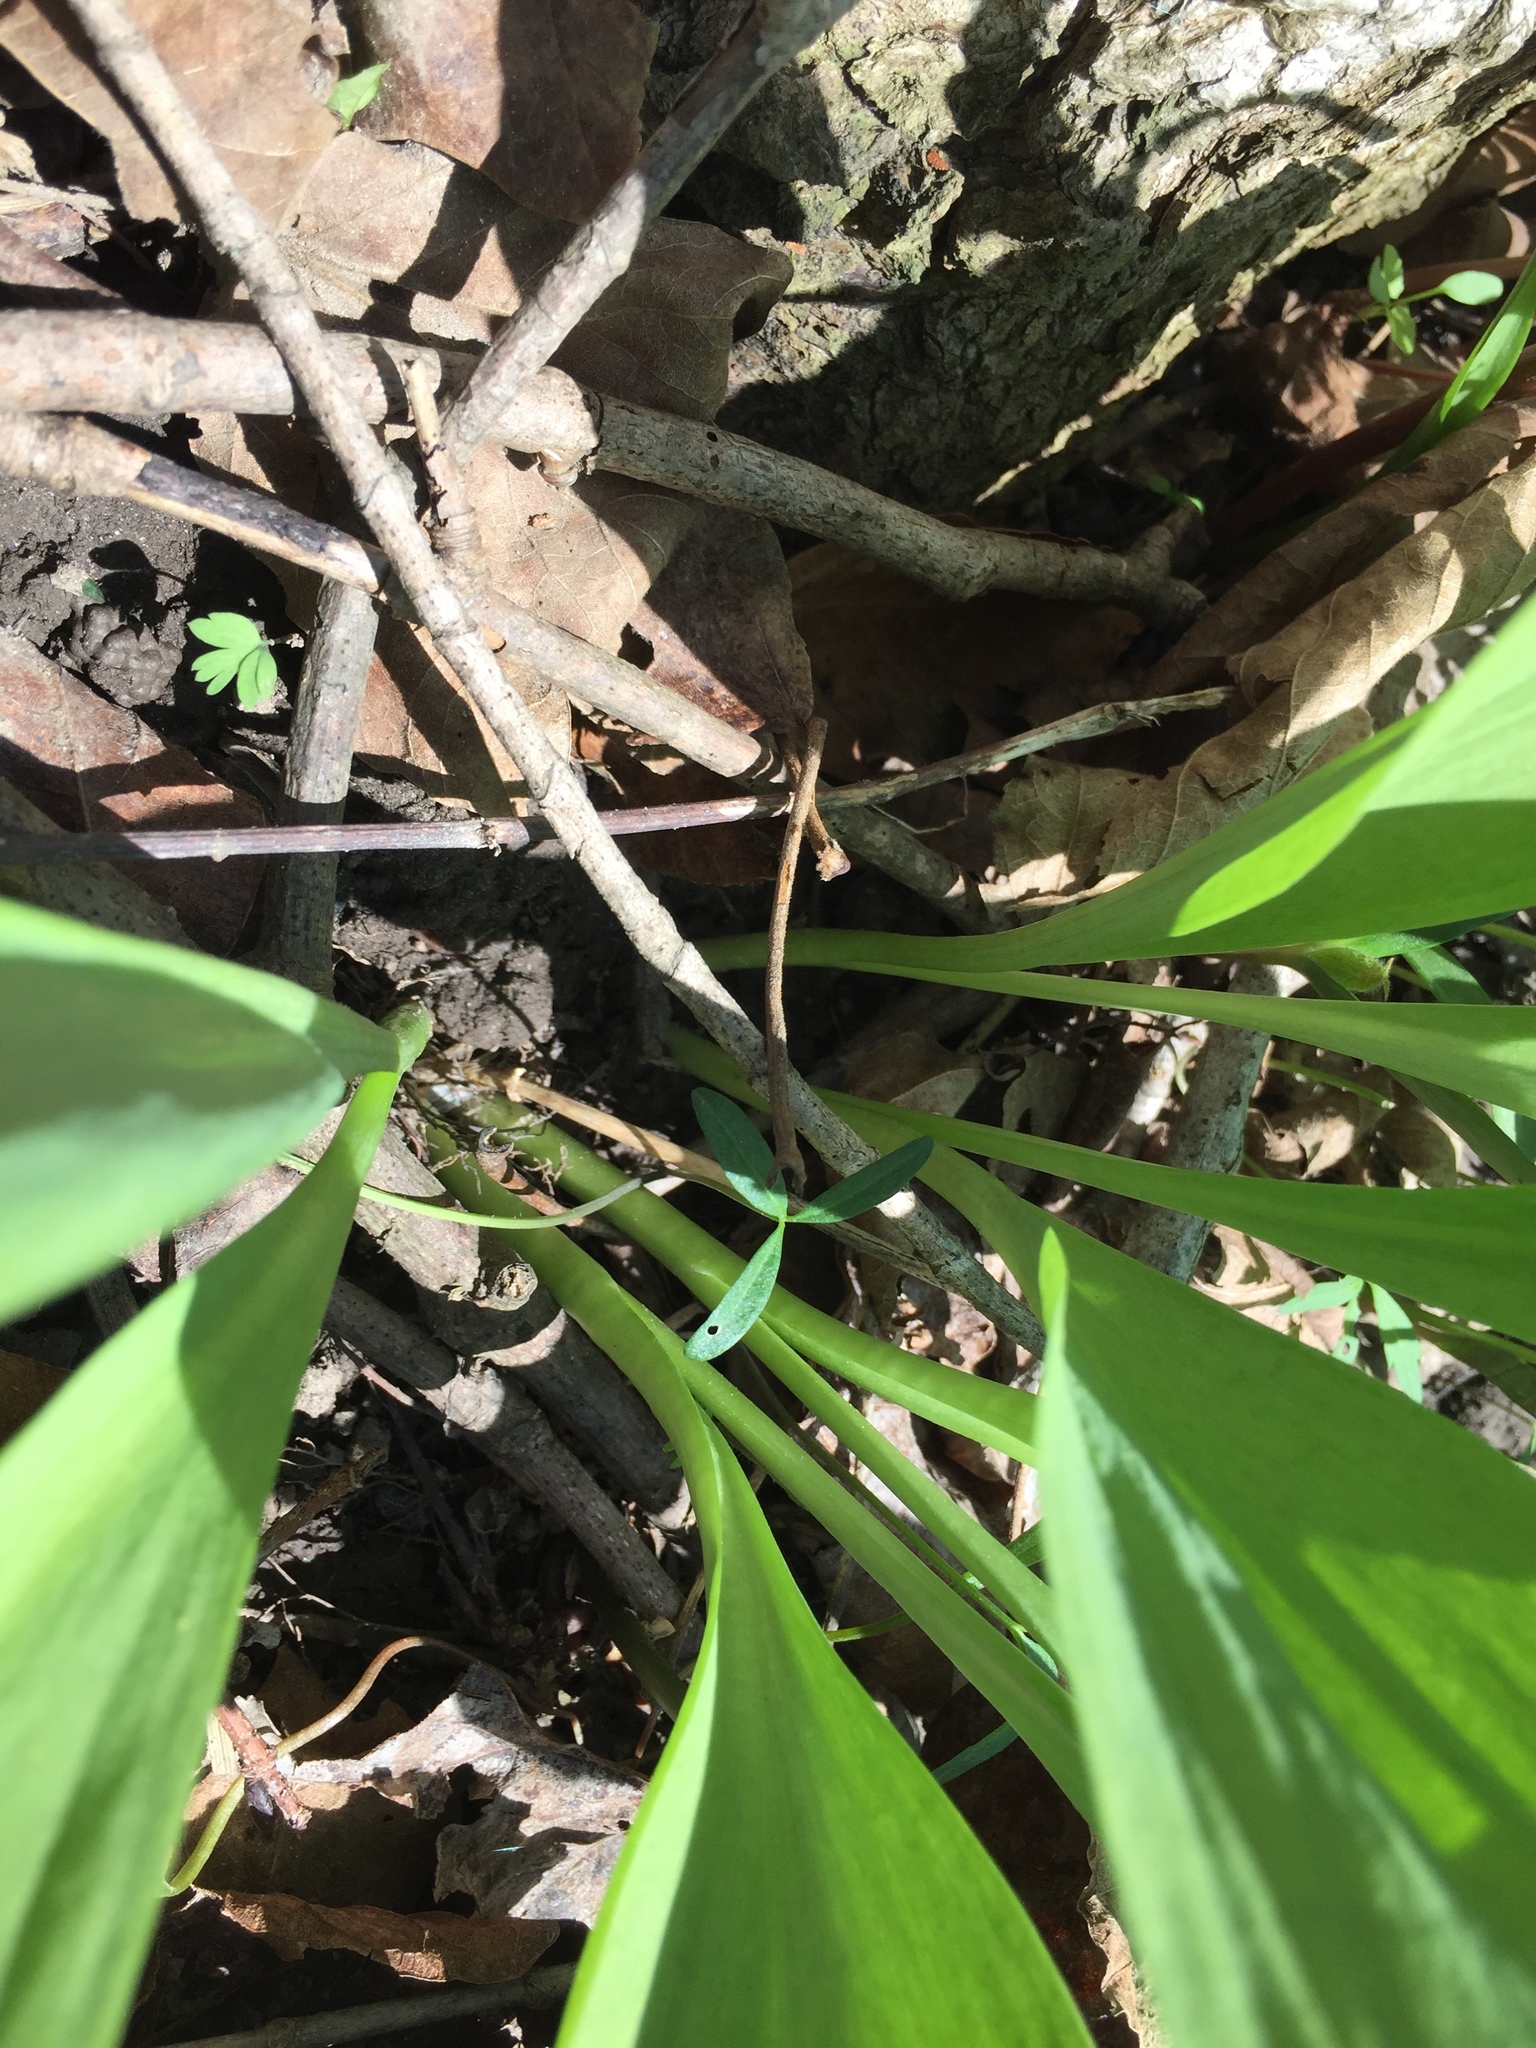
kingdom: Plantae
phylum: Tracheophyta
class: Liliopsida
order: Asparagales
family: Amaryllidaceae
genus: Allium
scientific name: Allium tricoccum
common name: Ramp
